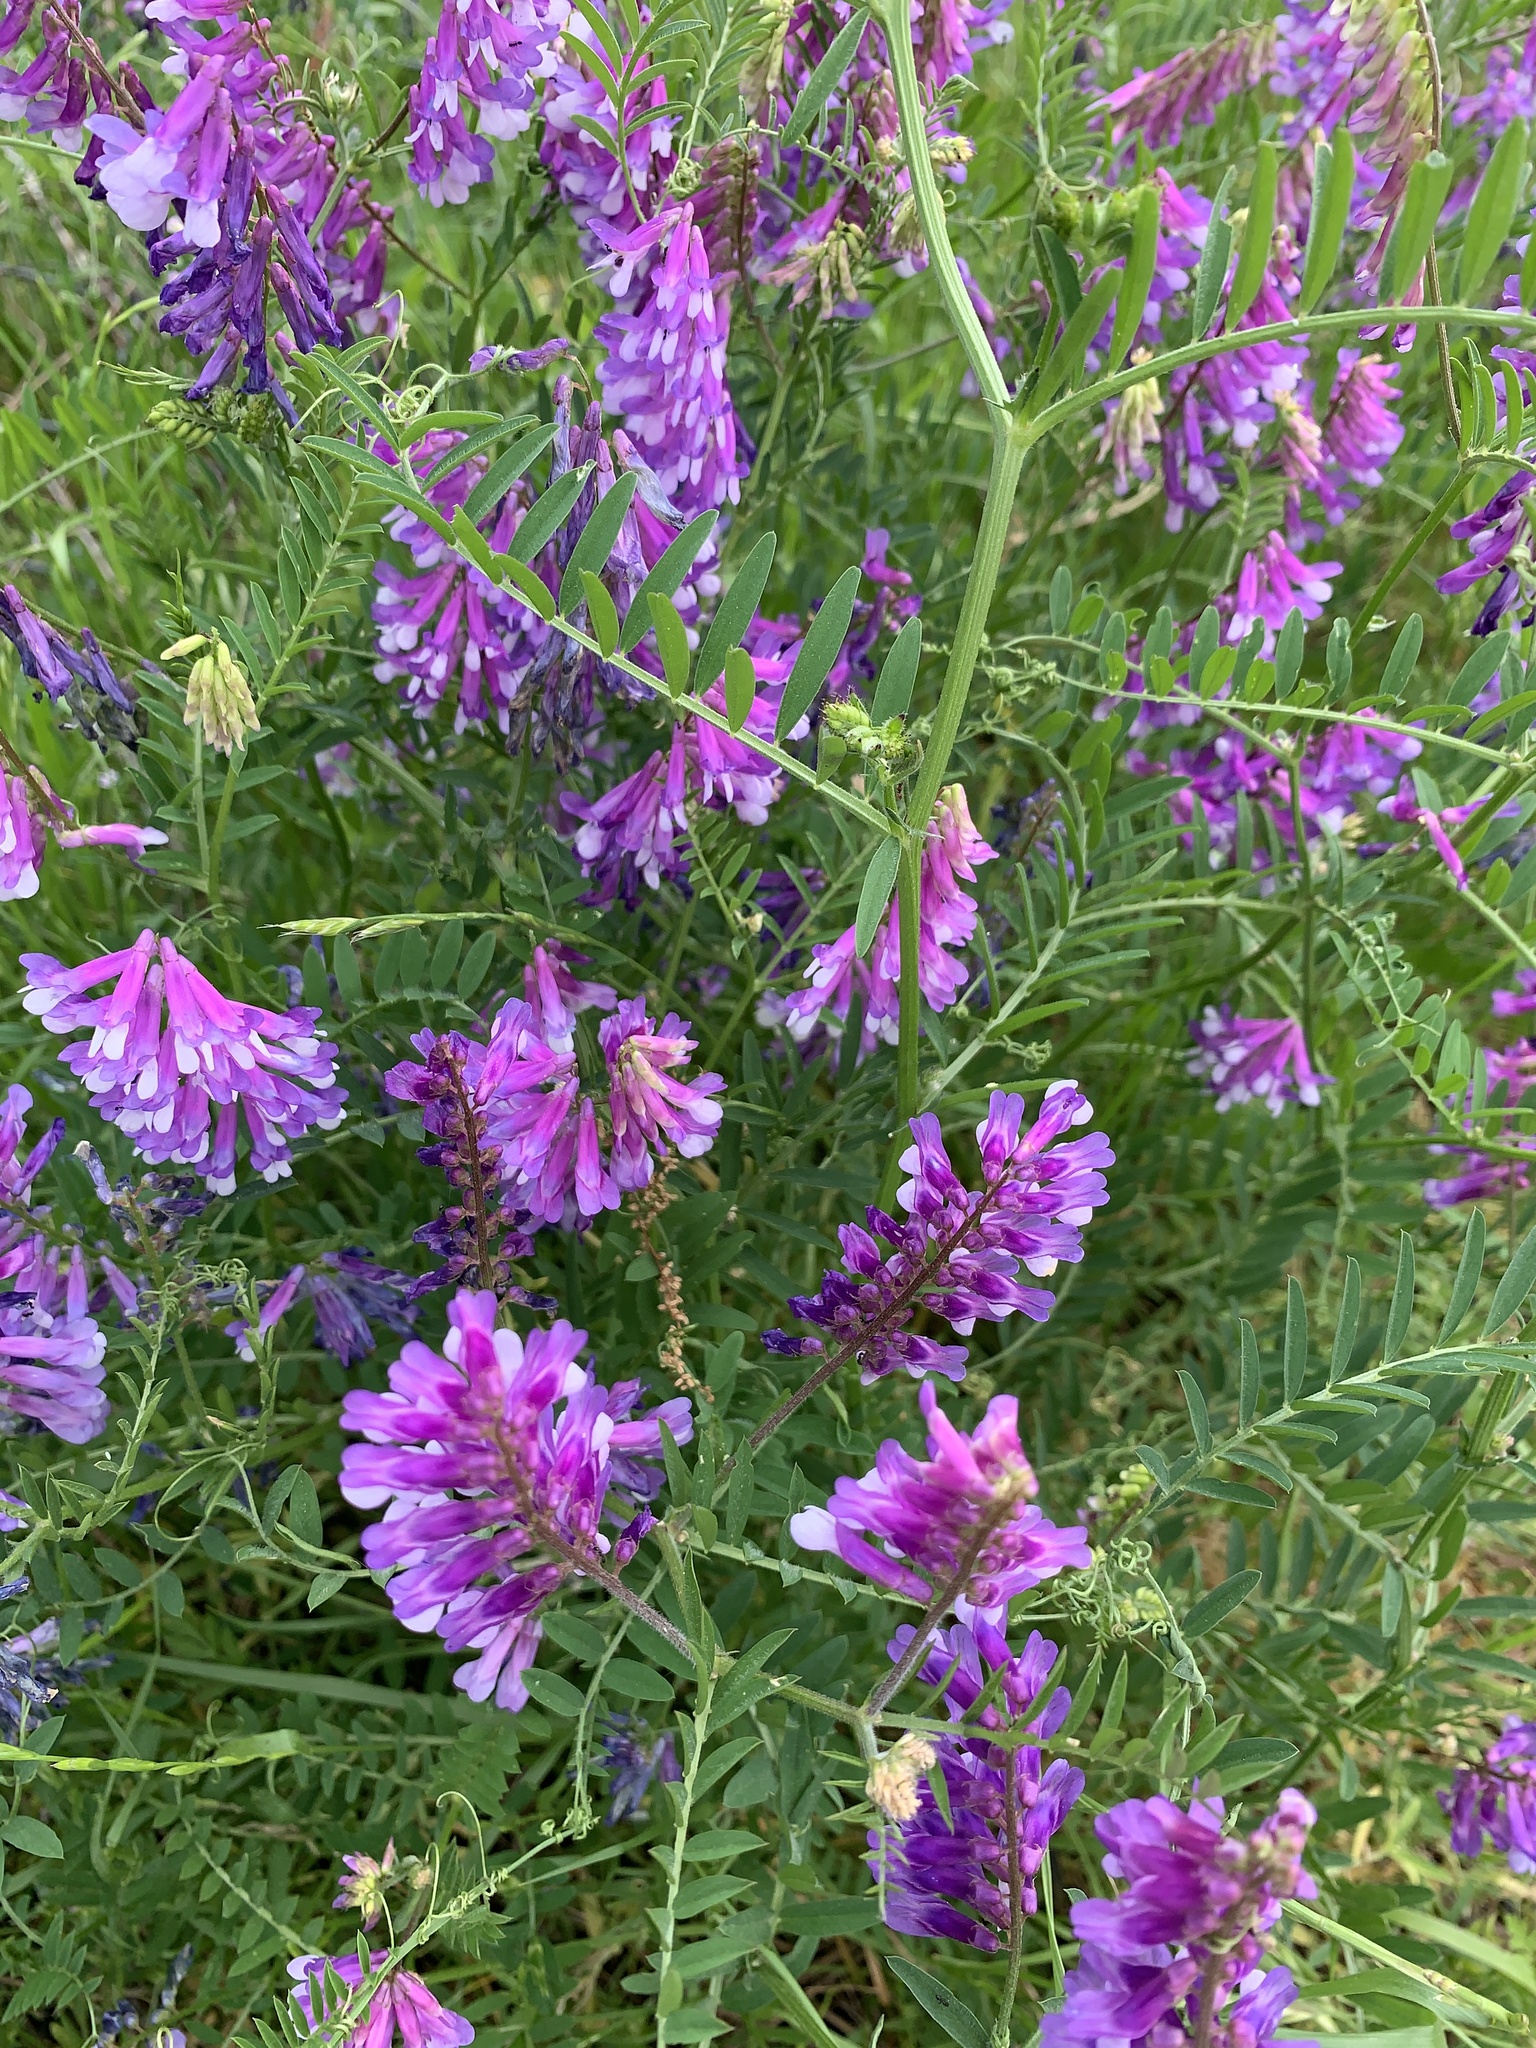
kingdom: Plantae
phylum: Tracheophyta
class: Magnoliopsida
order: Fabales
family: Fabaceae
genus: Vicia
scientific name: Vicia villosa
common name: Fodder vetch
